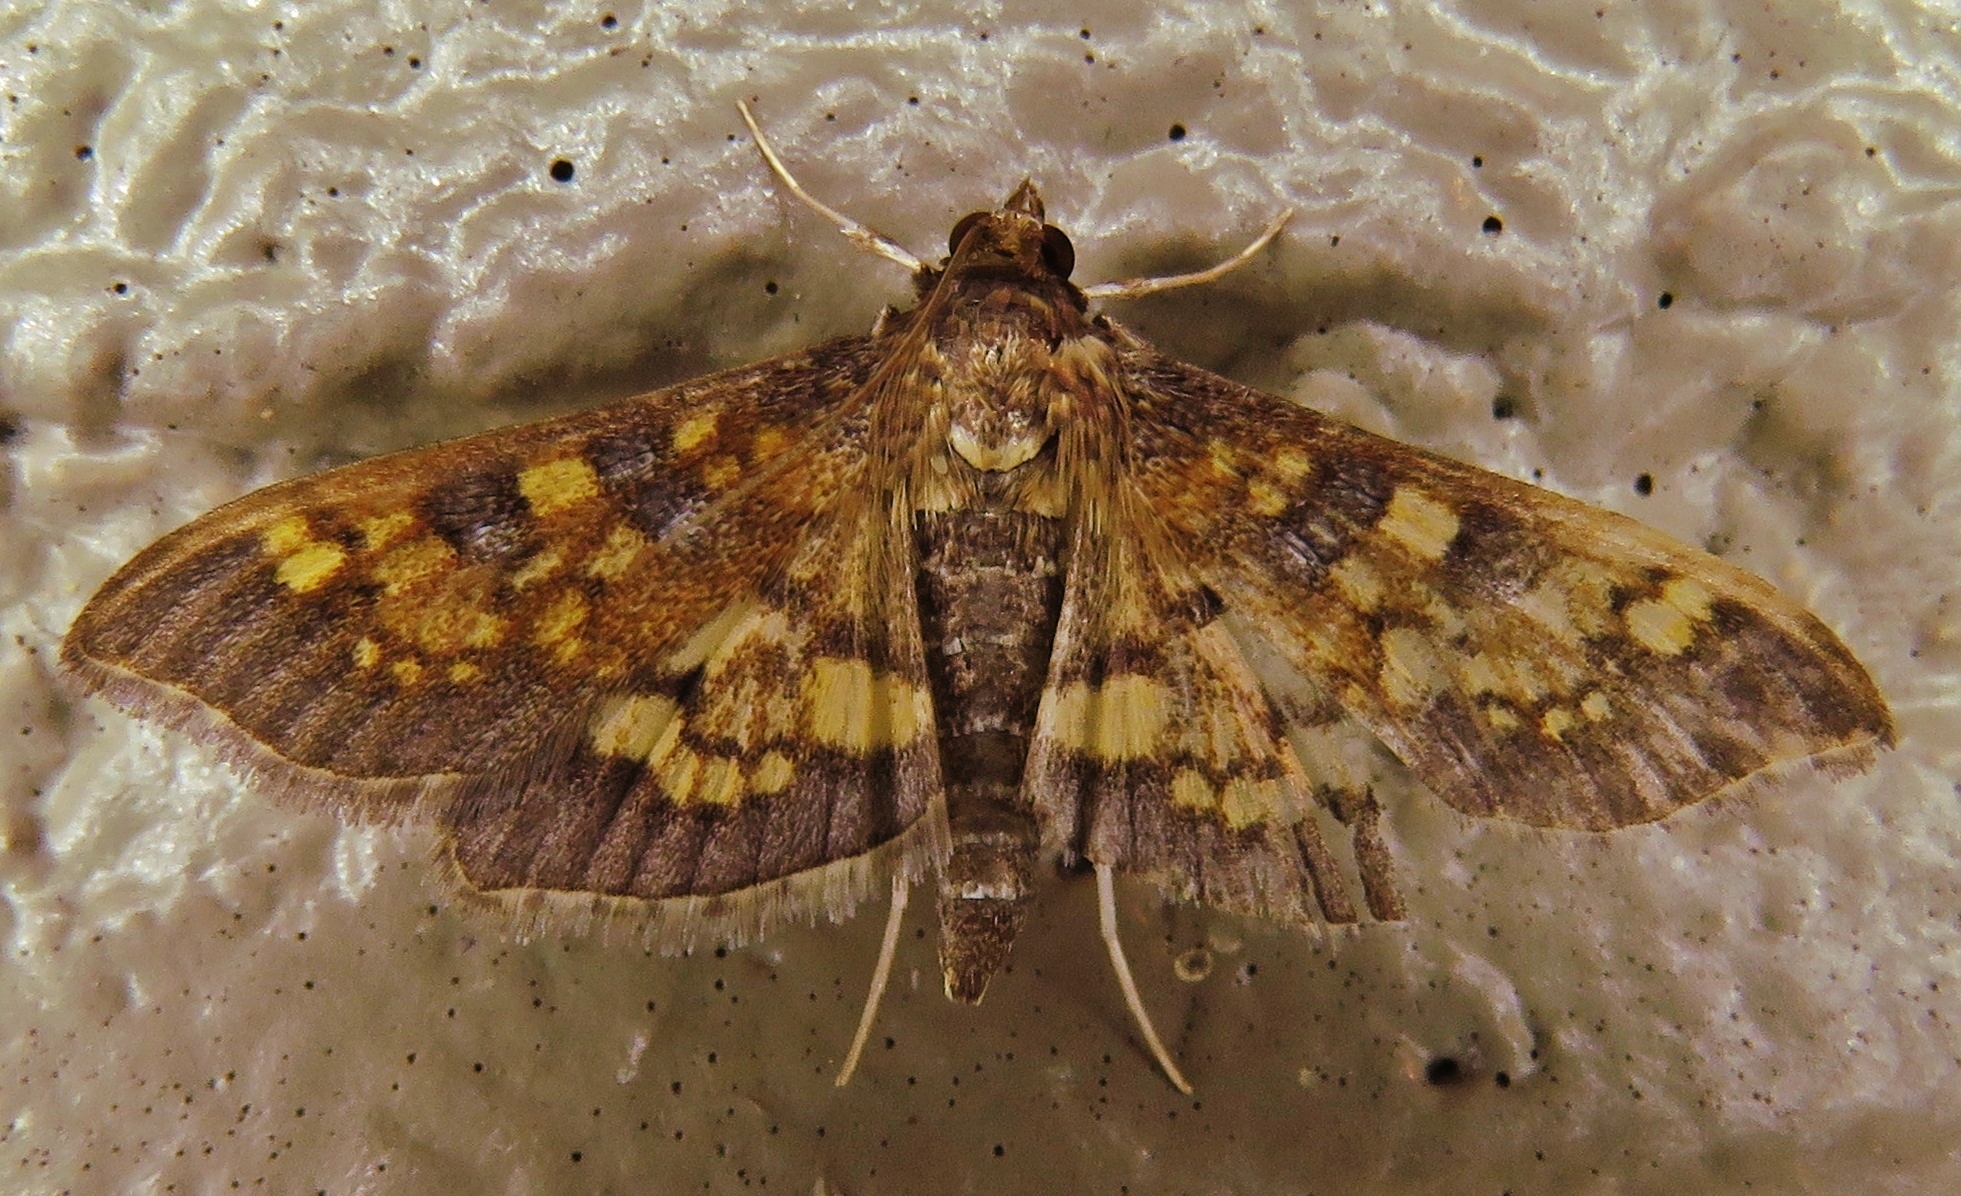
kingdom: Animalia
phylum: Arthropoda
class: Insecta
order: Lepidoptera
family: Crambidae
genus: Epipagis
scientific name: Epipagis adipaloides
